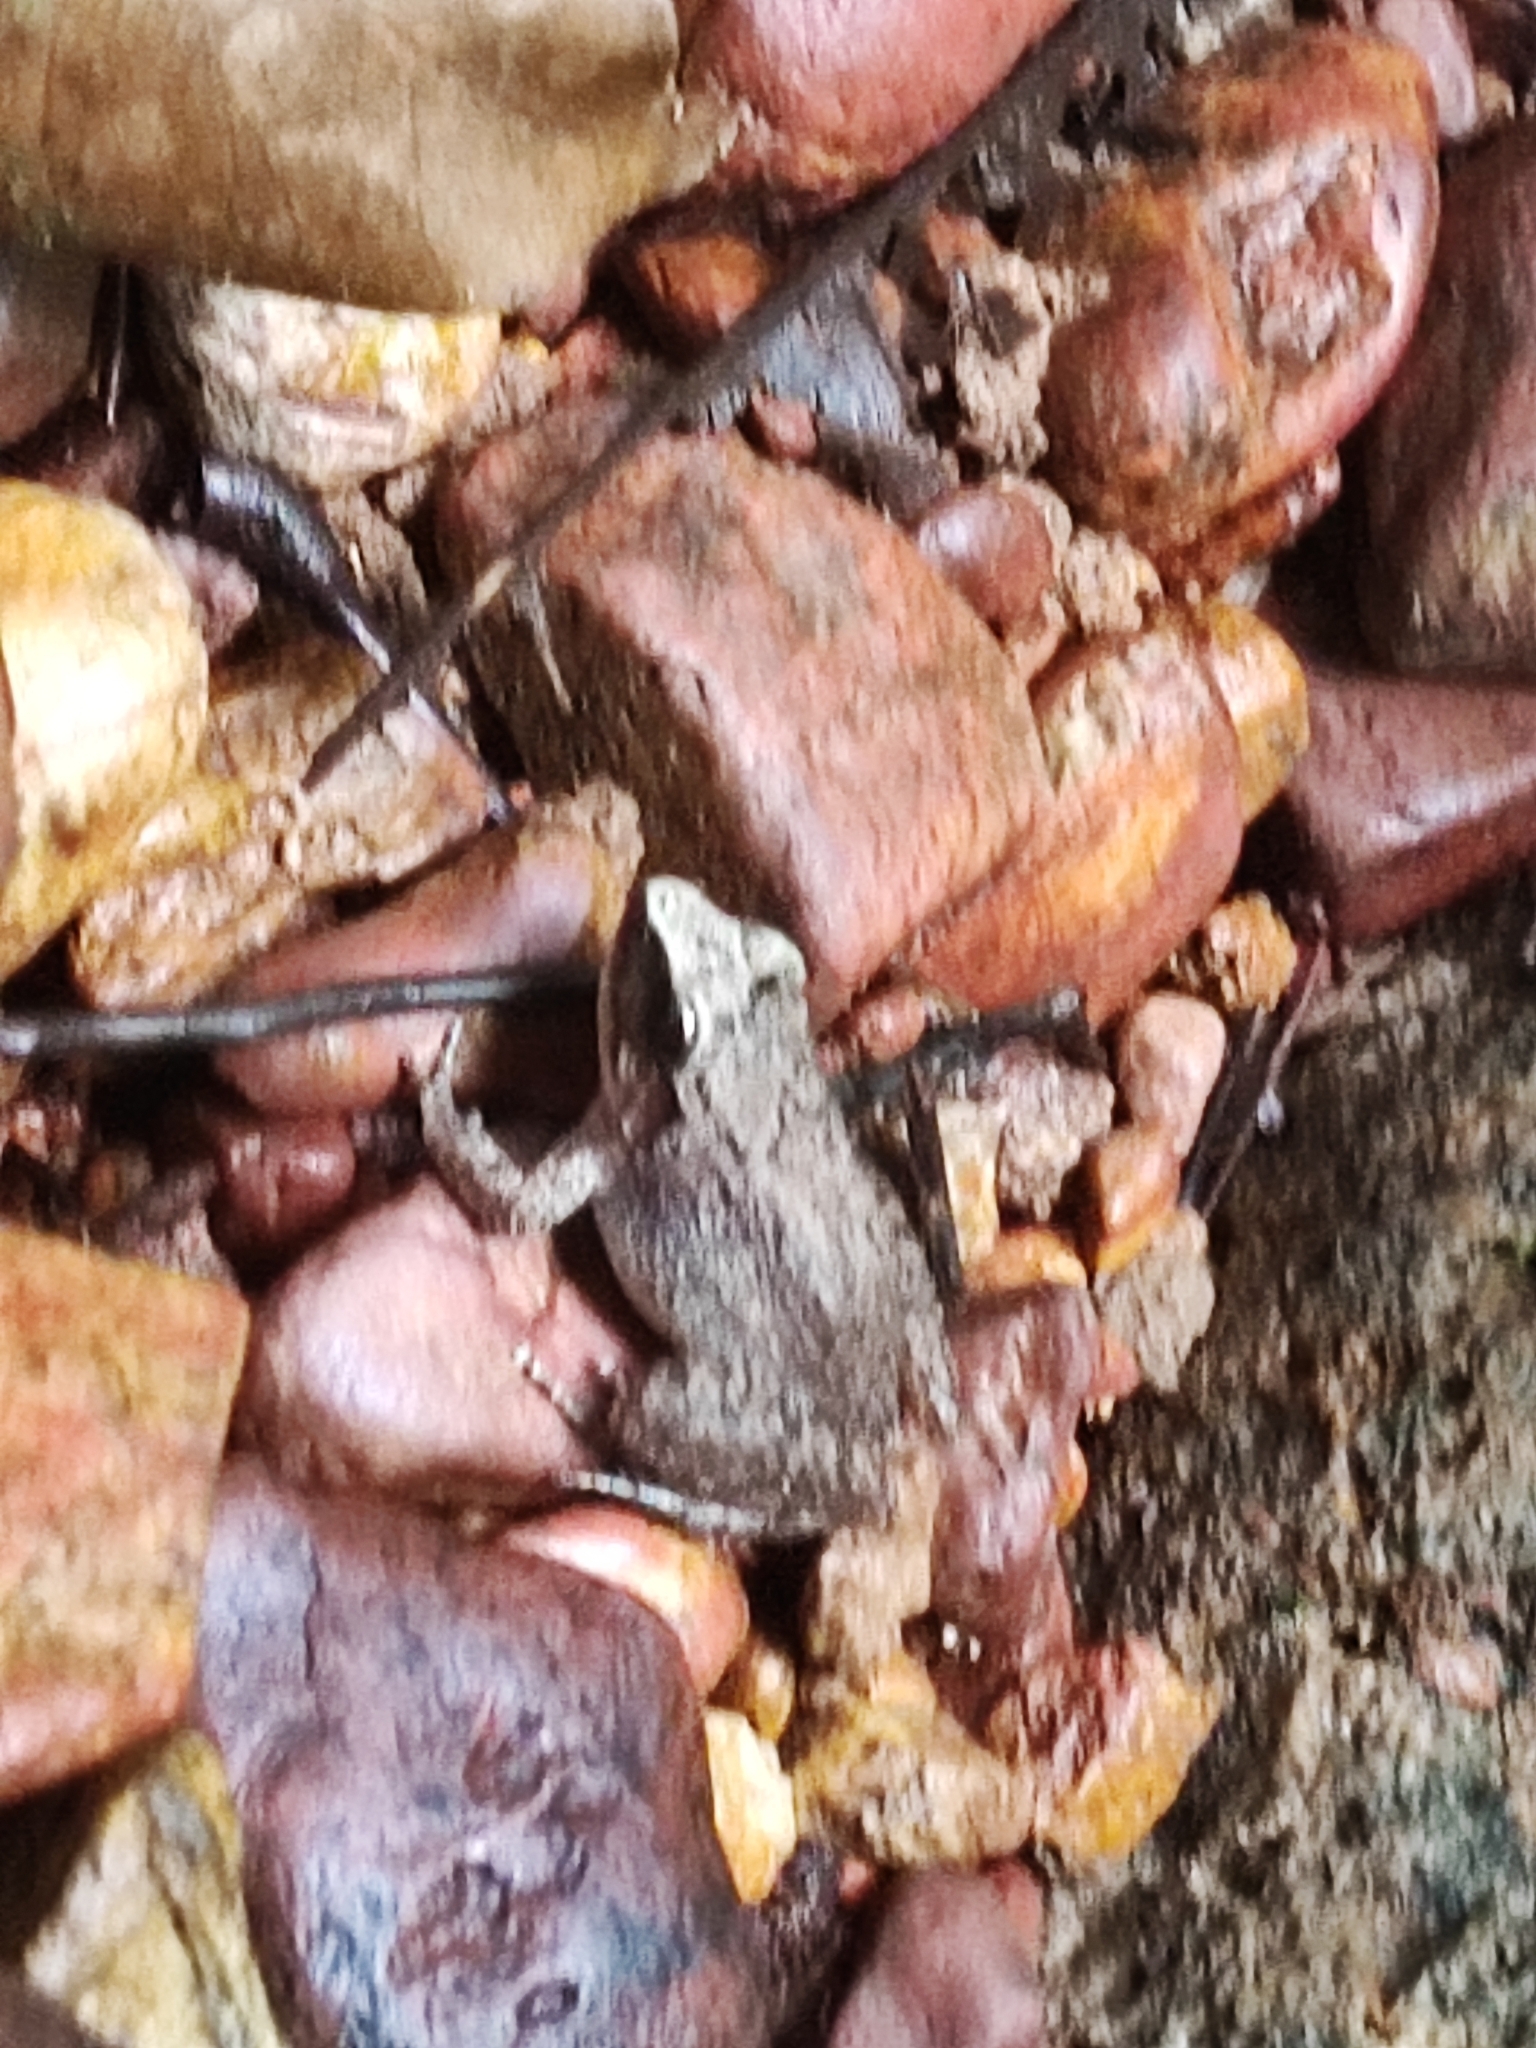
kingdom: Animalia
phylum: Chordata
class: Amphibia
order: Anura
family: Dicroglossidae
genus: Limnonectes
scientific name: Limnonectes hascheanus
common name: Hill forest frog
